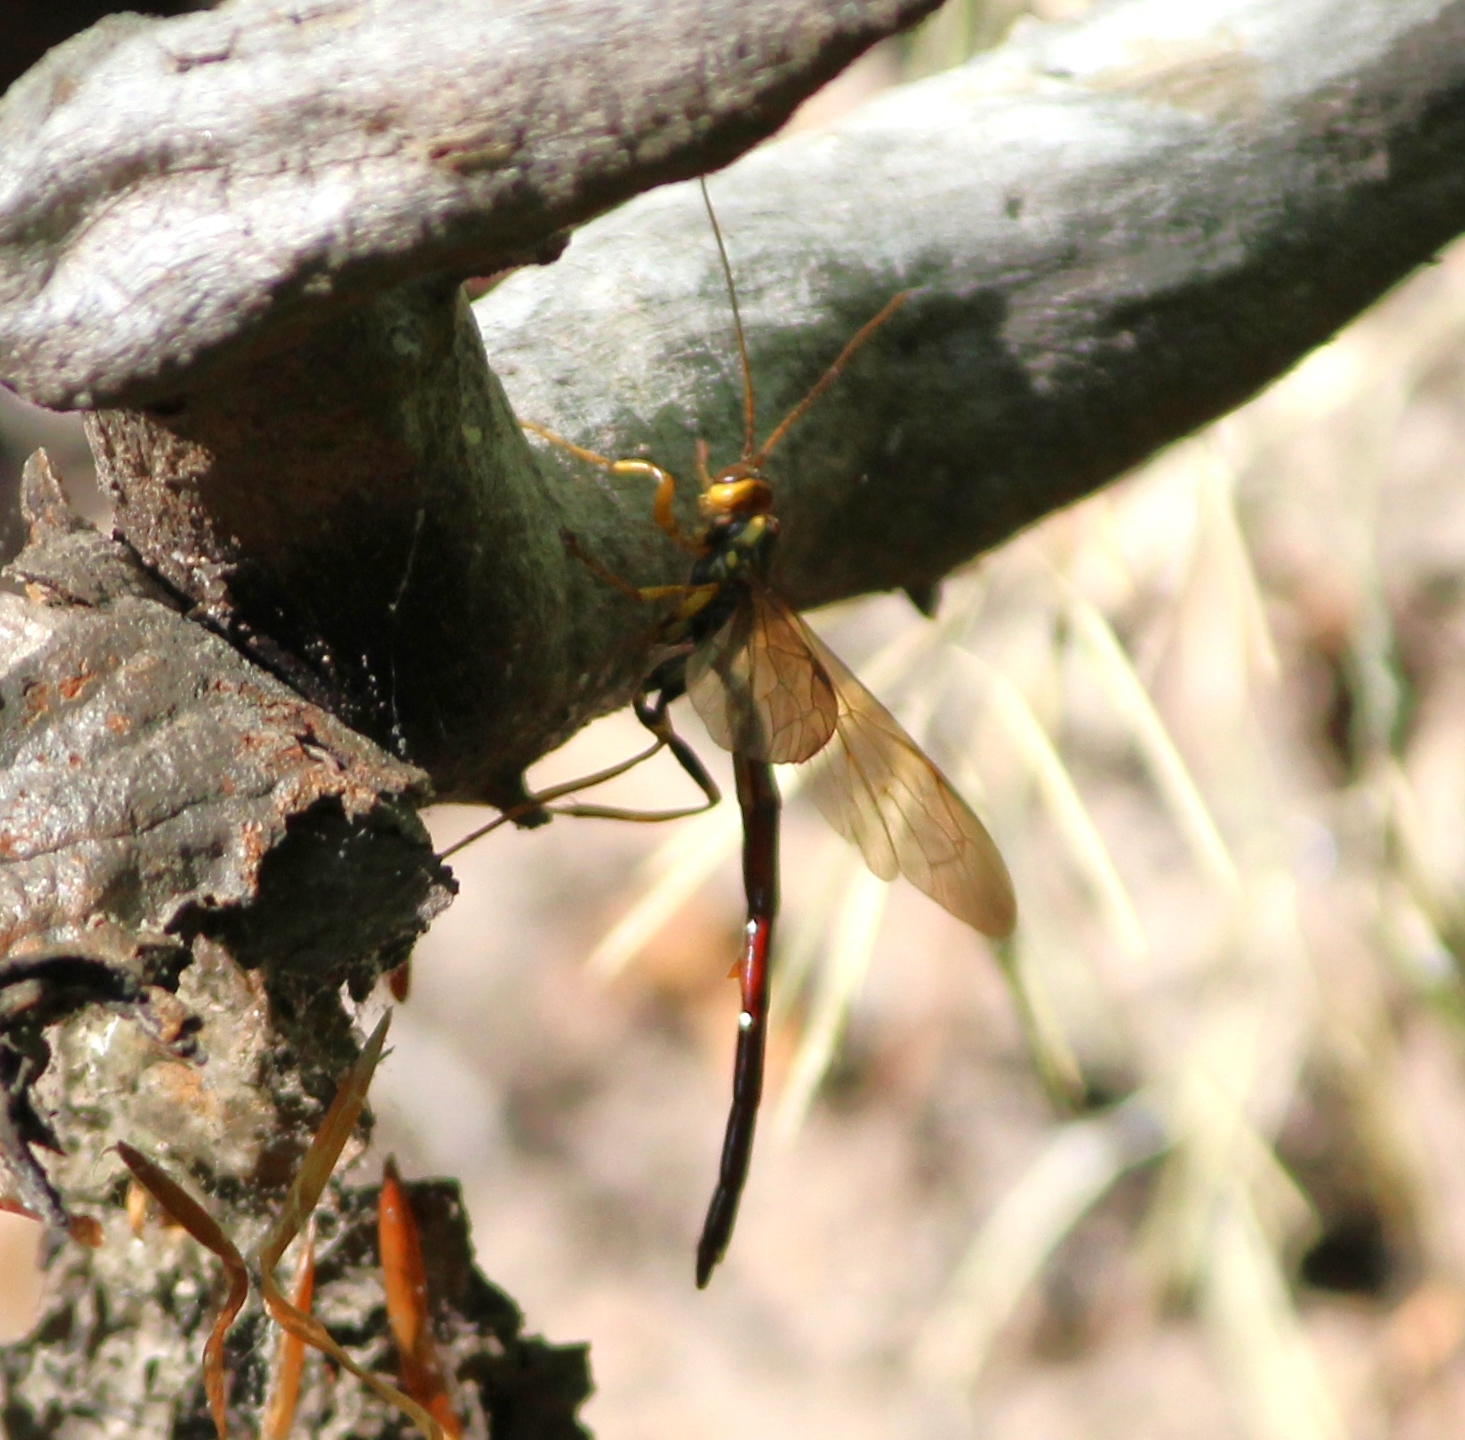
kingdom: Animalia
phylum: Arthropoda
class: Insecta
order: Hymenoptera
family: Ichneumonidae
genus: Megarhyssa
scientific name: Megarhyssa nortoni
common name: Norton's giant ichneumonid wasp
